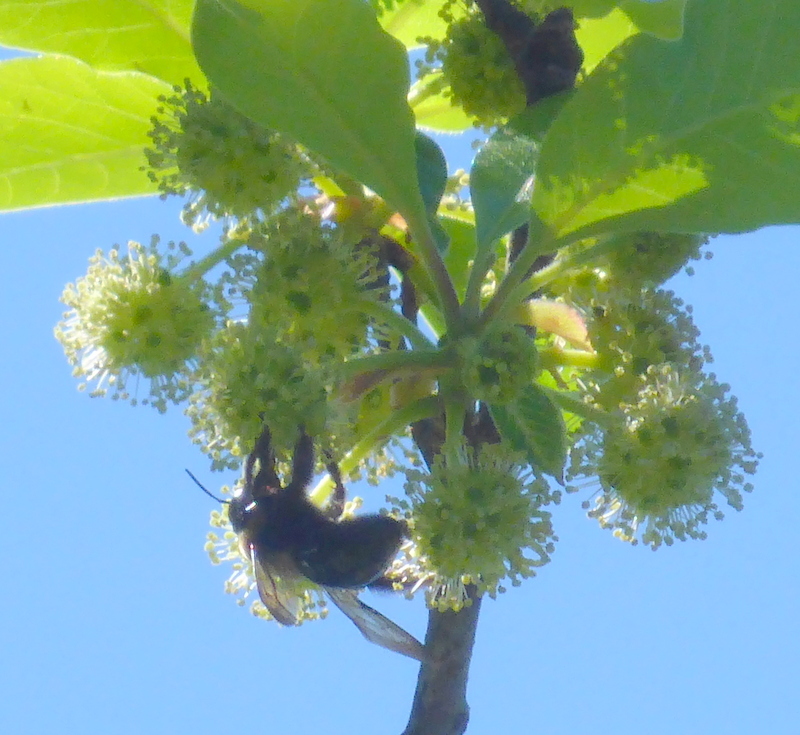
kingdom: Animalia
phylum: Arthropoda
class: Insecta
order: Hymenoptera
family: Apidae
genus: Apis
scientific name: Apis mellifera
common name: Honey bee
